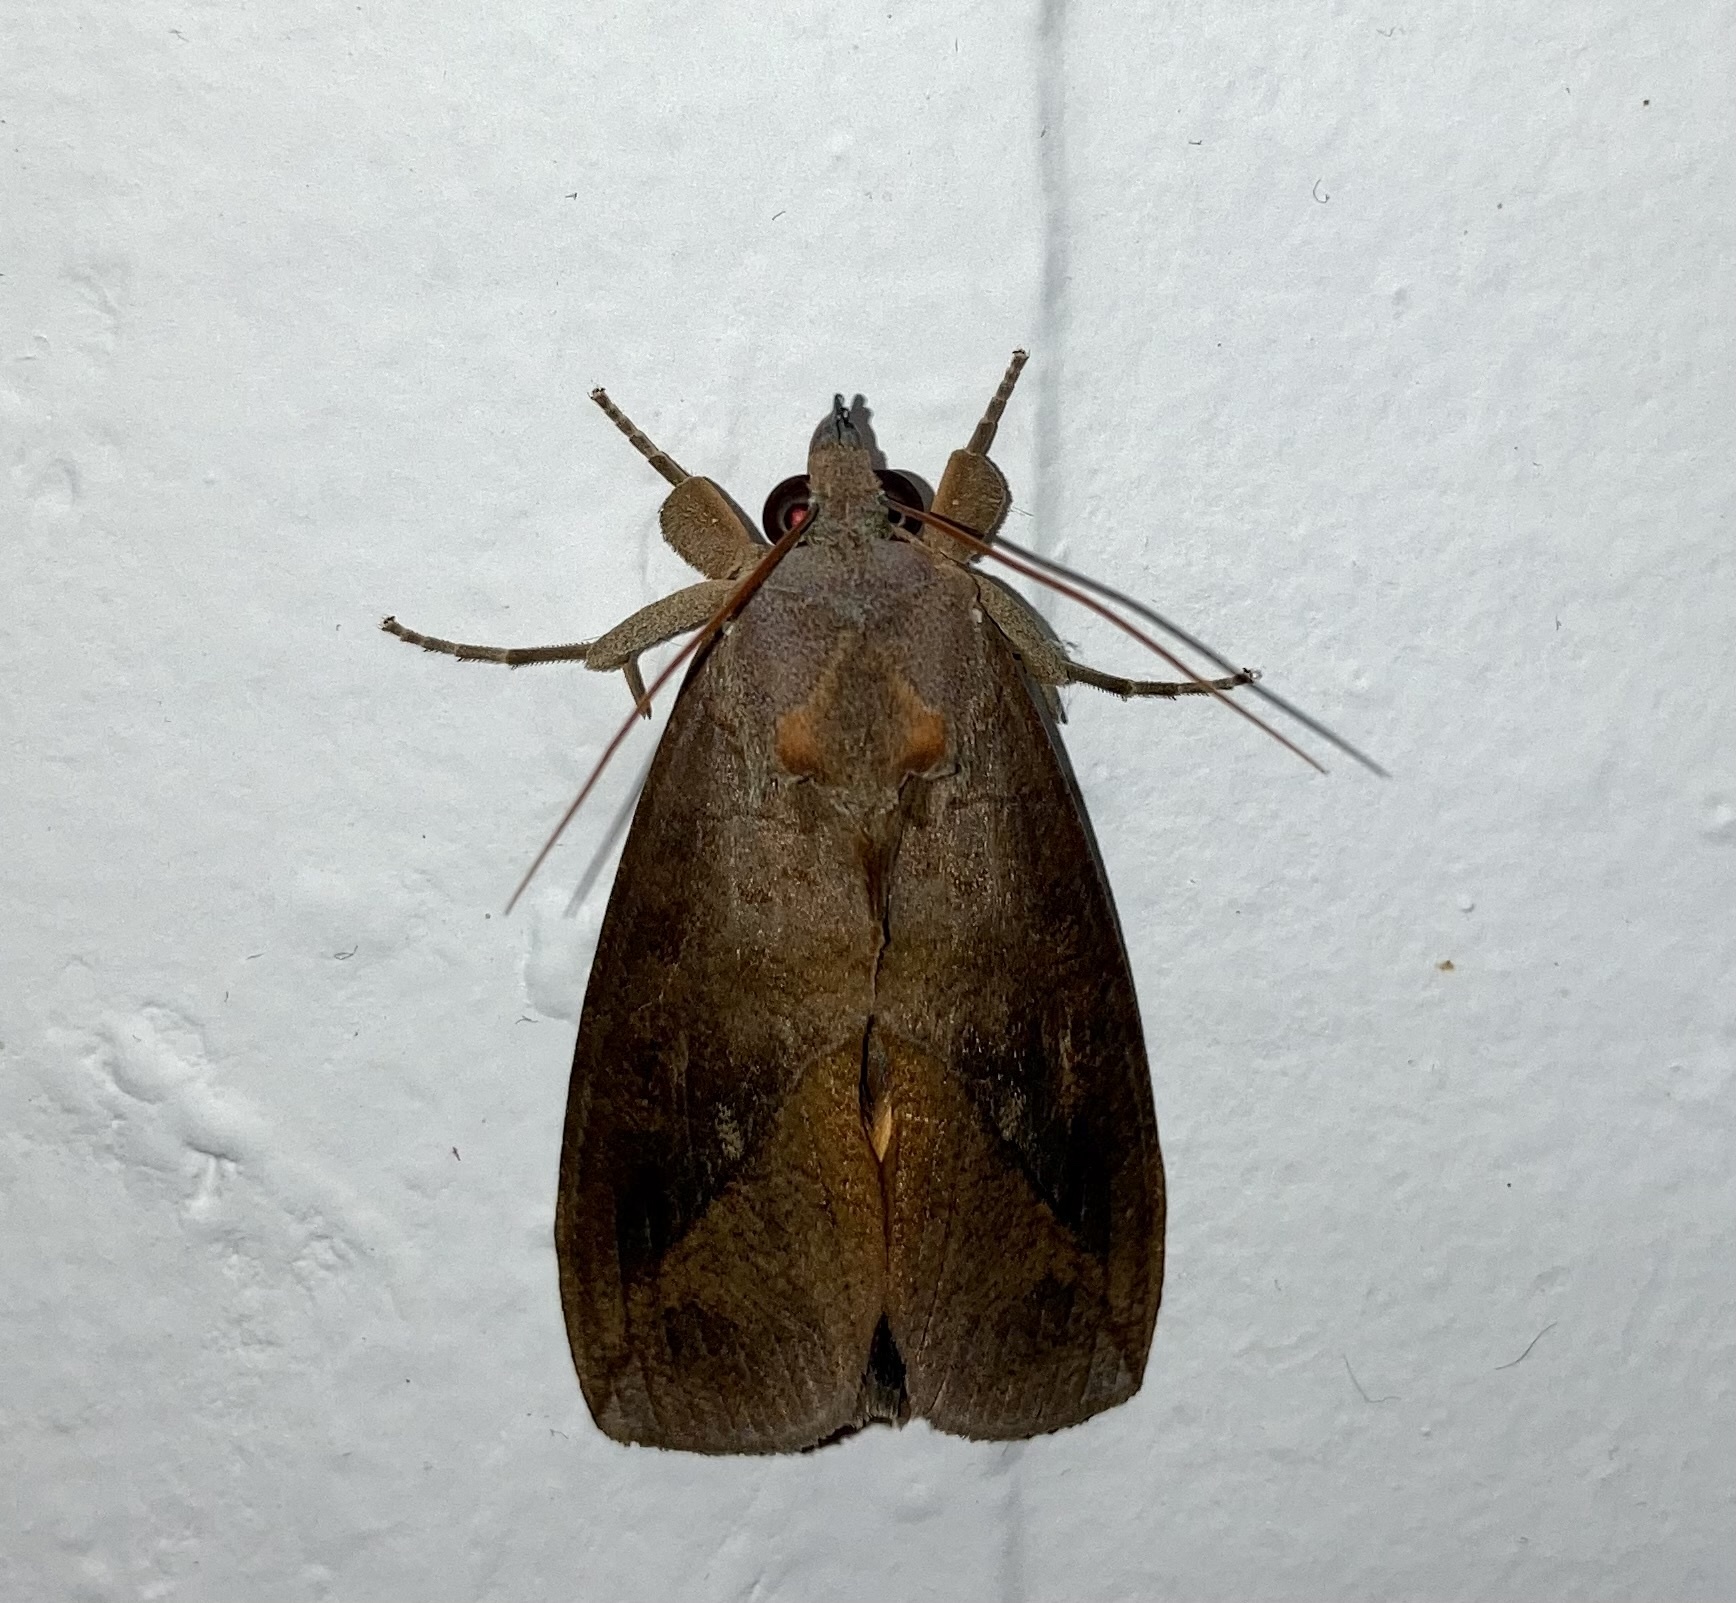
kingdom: Animalia
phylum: Arthropoda
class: Insecta
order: Lepidoptera
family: Erebidae
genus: Eudocima
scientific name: Eudocima procus
